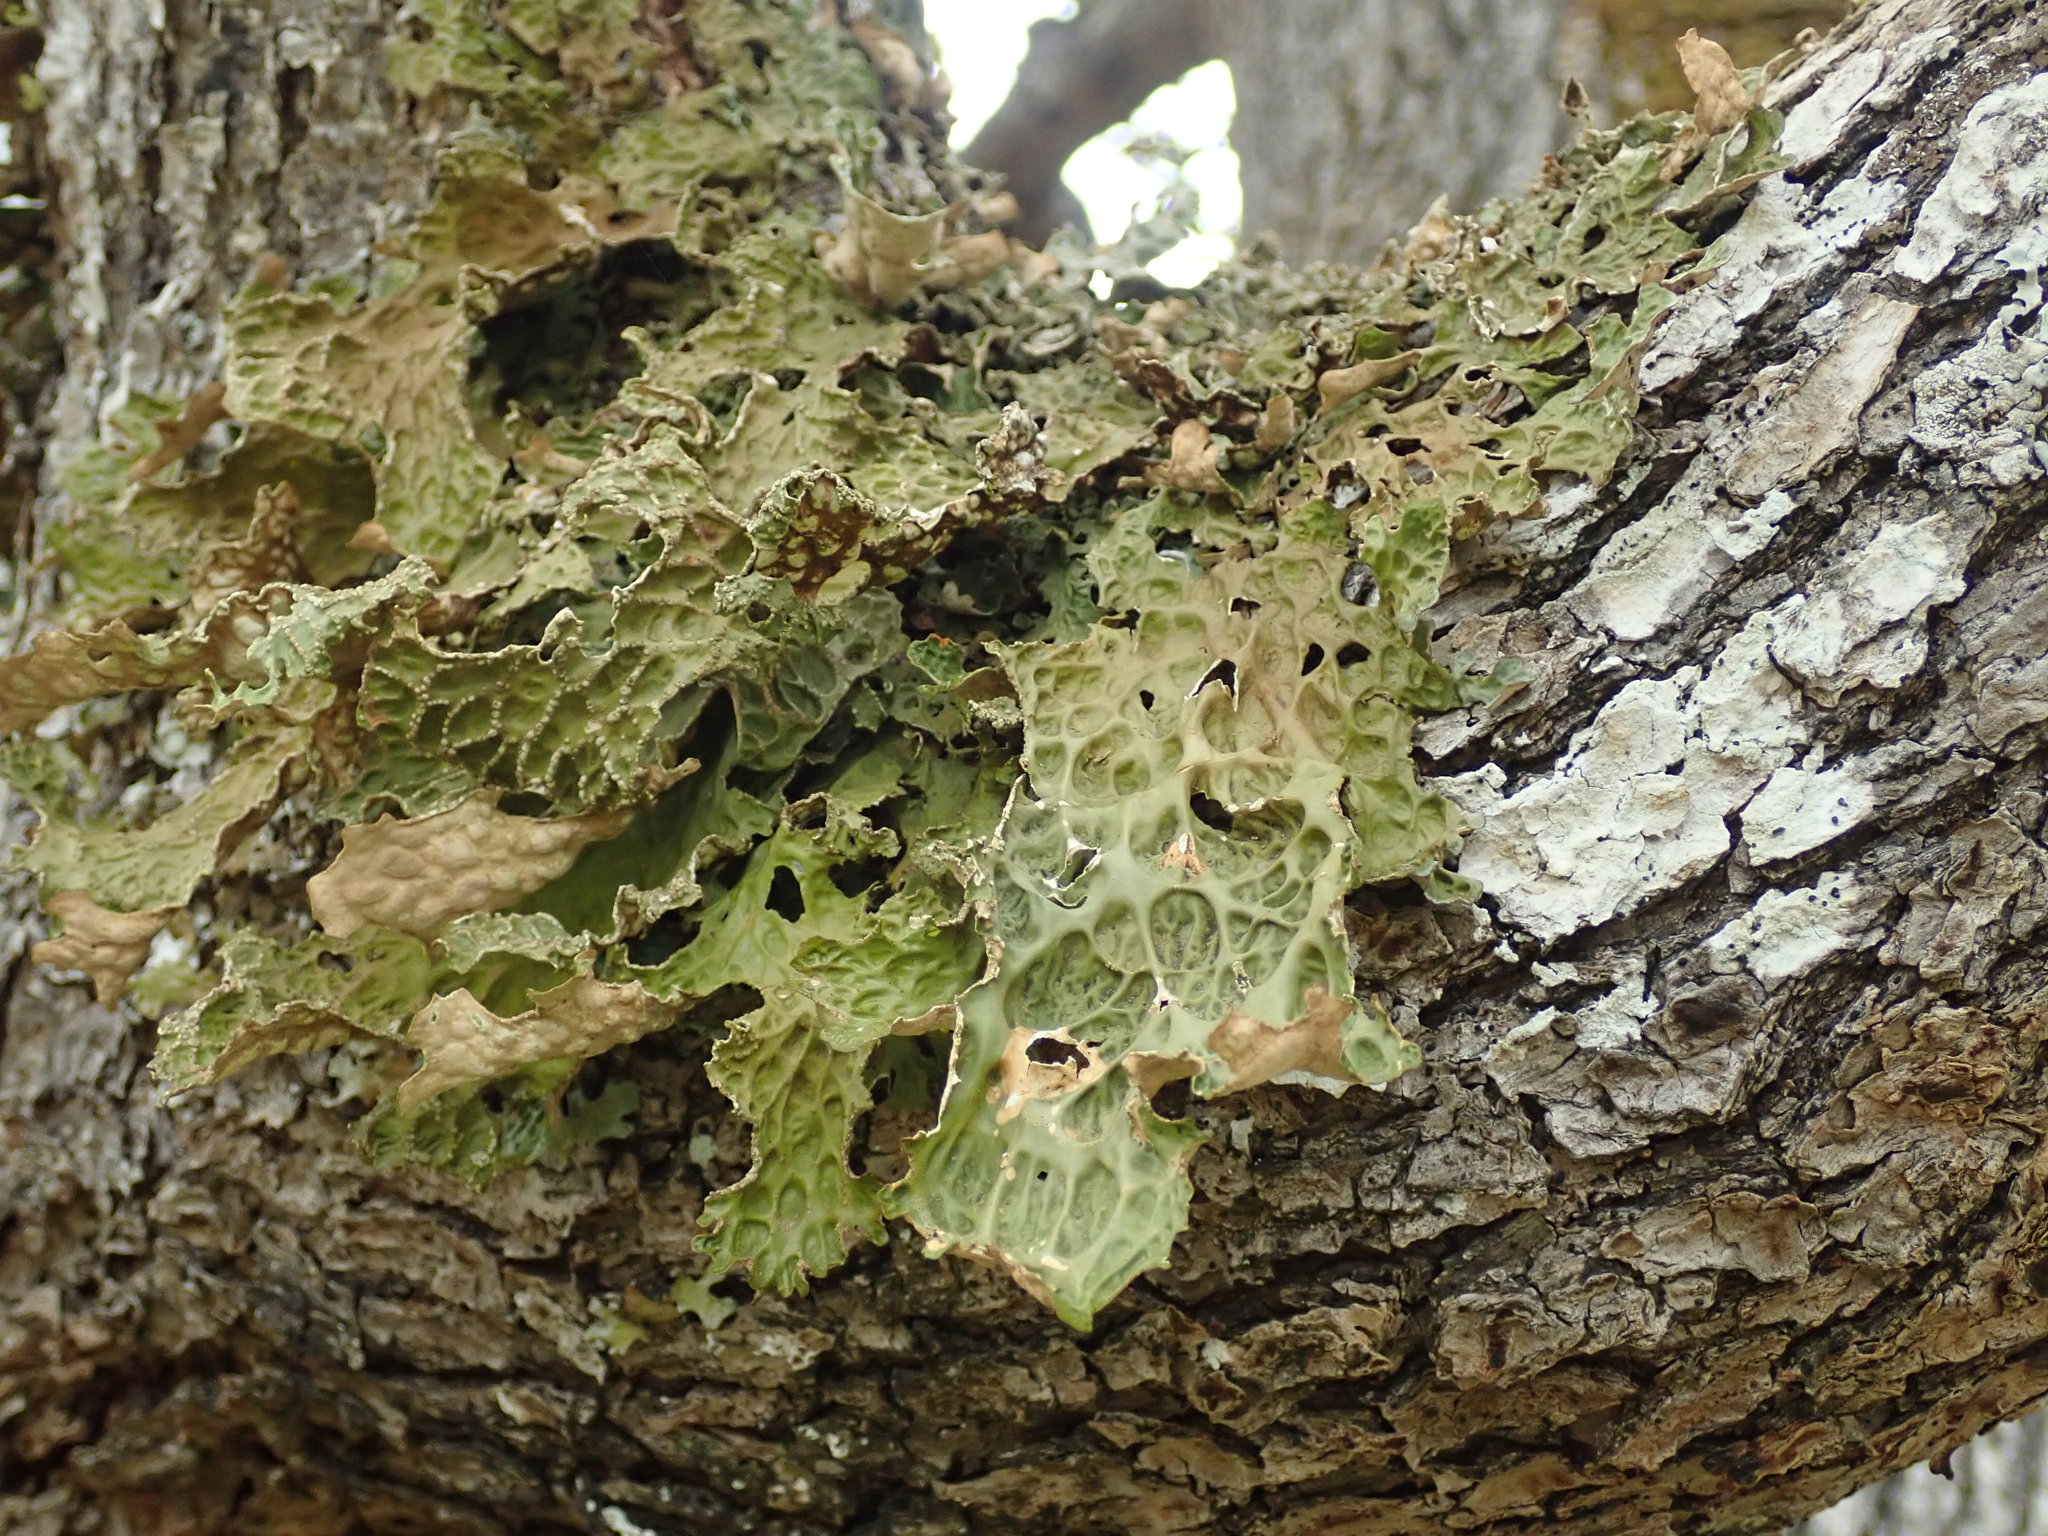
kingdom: Fungi
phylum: Ascomycota
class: Lecanoromycetes
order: Peltigerales
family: Lobariaceae
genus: Lobaria
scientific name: Lobaria pulmonaria
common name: Lungwort
